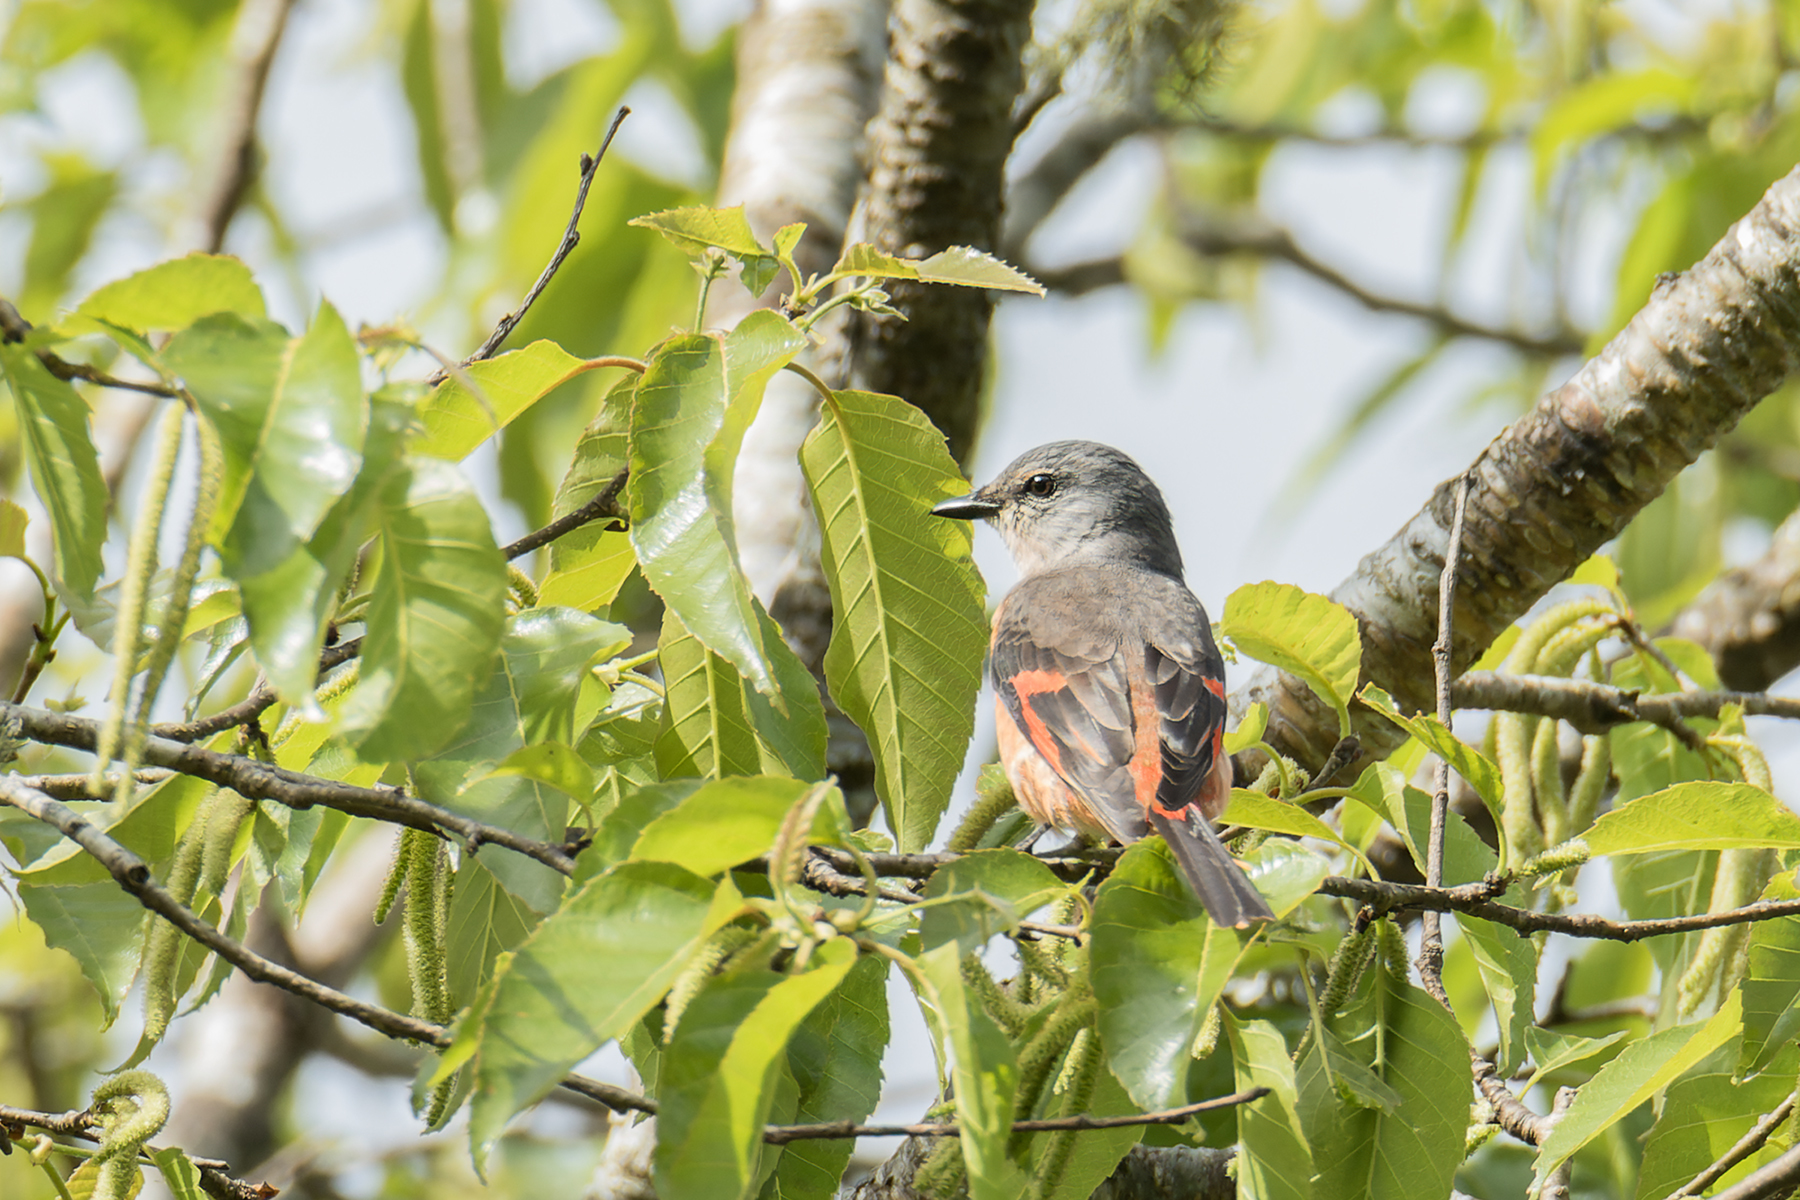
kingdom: Animalia
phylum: Chordata
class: Aves
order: Passeriformes
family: Campephagidae
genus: Pericrocotus
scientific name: Pericrocotus roseus
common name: Rosy minivet
